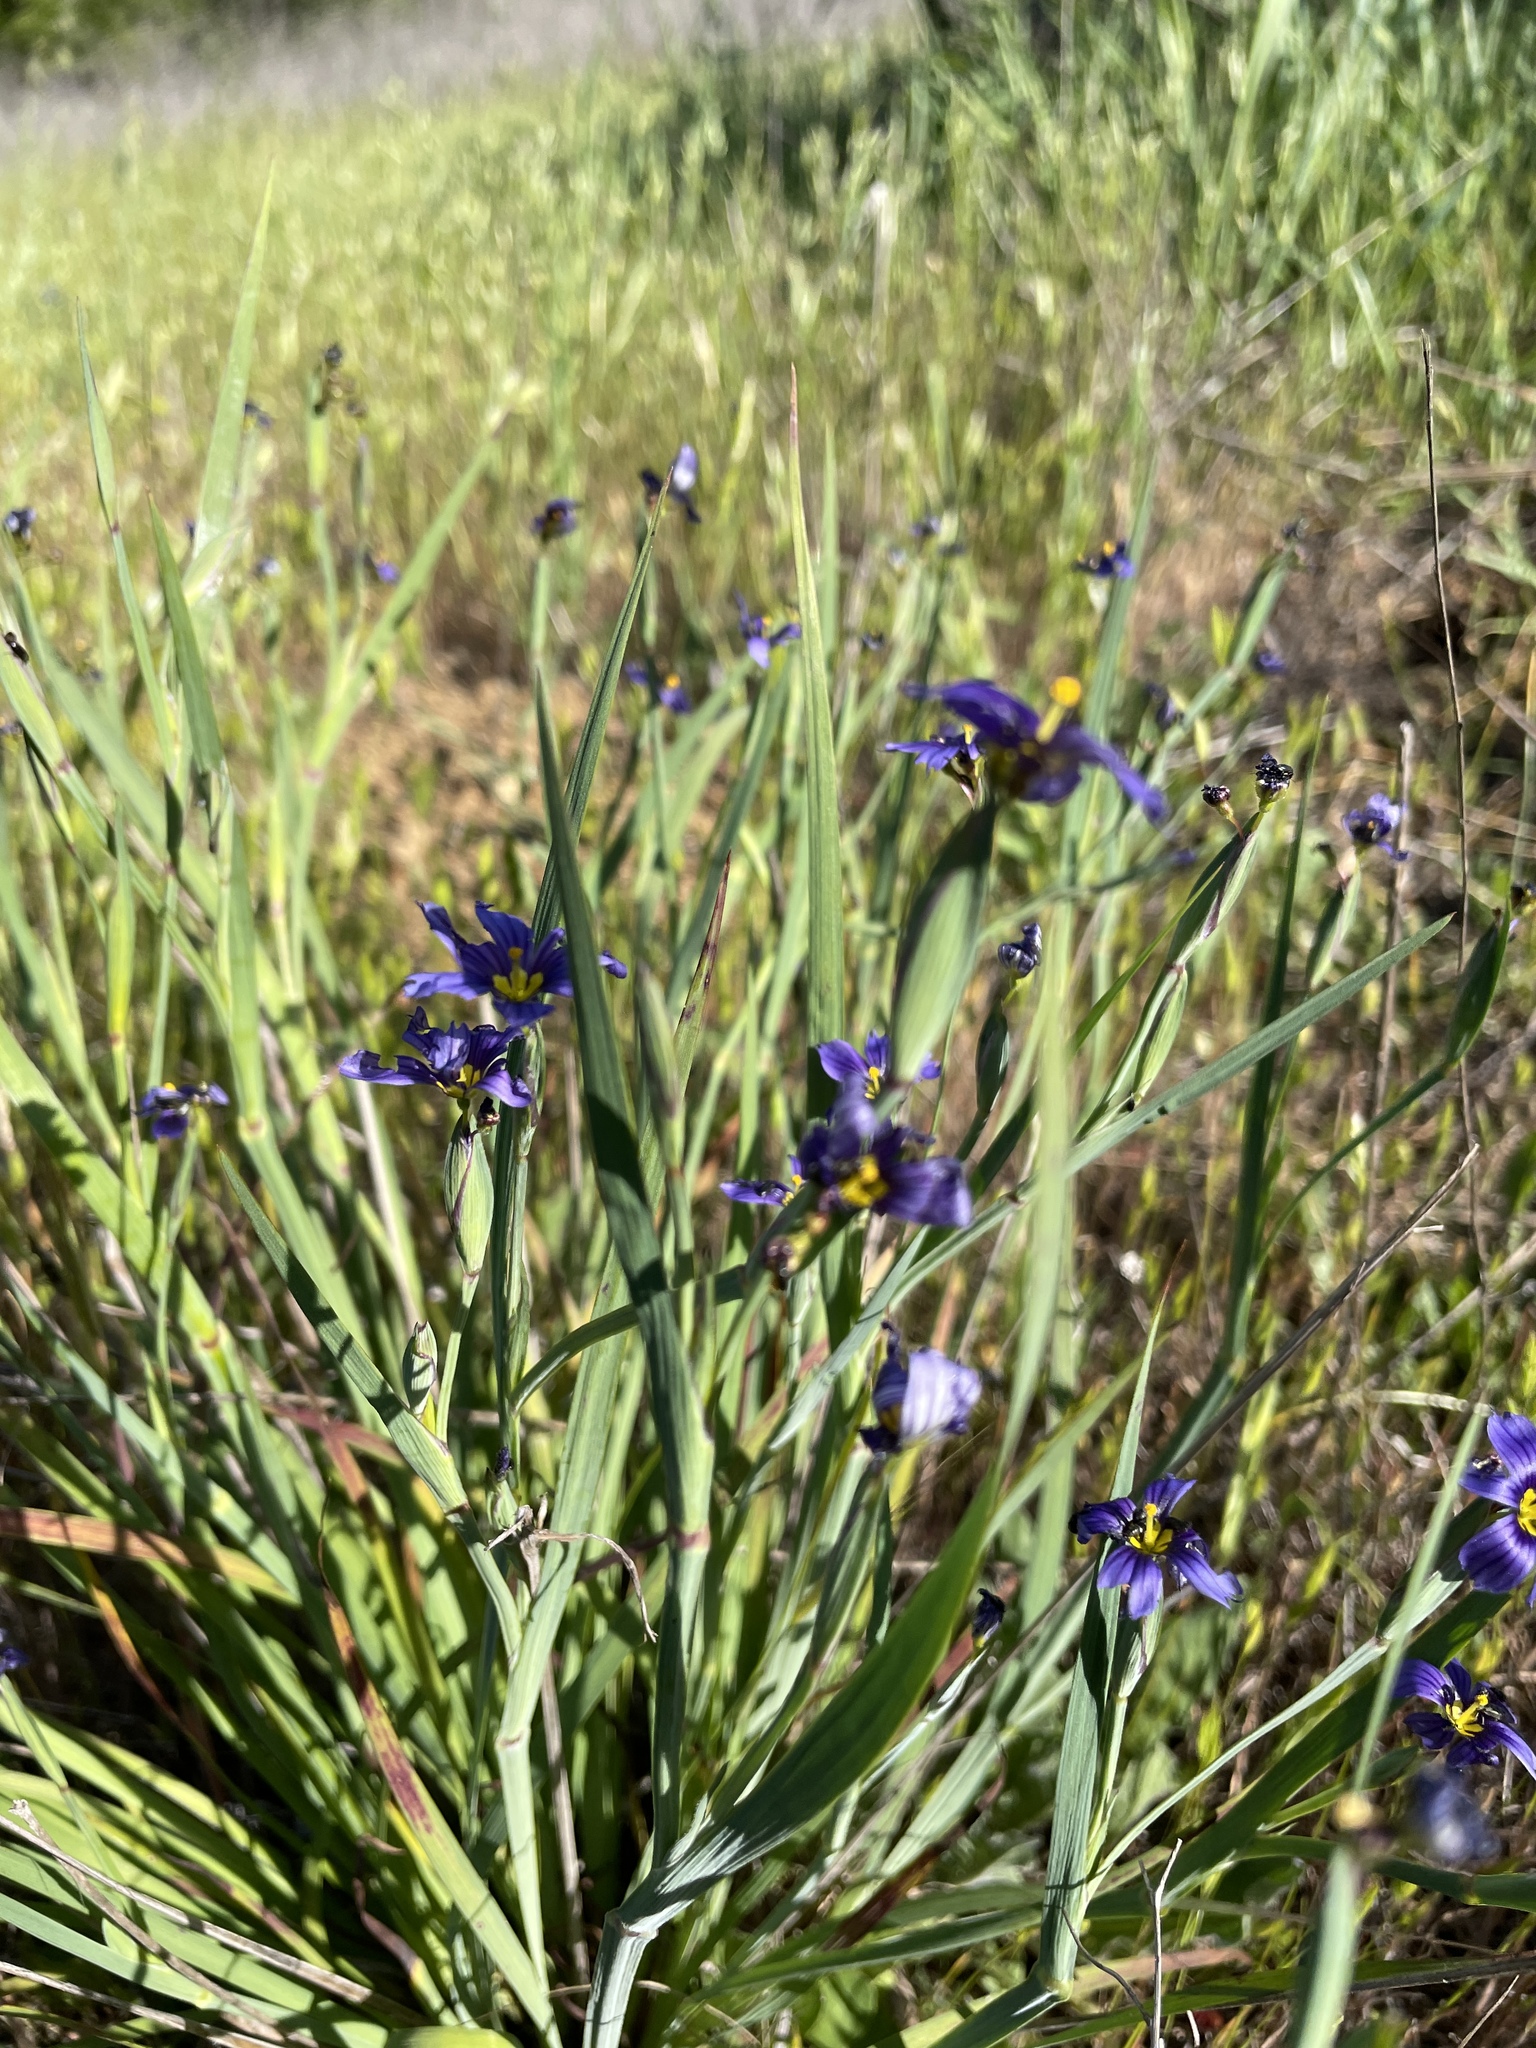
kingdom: Plantae
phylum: Tracheophyta
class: Liliopsida
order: Asparagales
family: Iridaceae
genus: Sisyrinchium
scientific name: Sisyrinchium bellum
